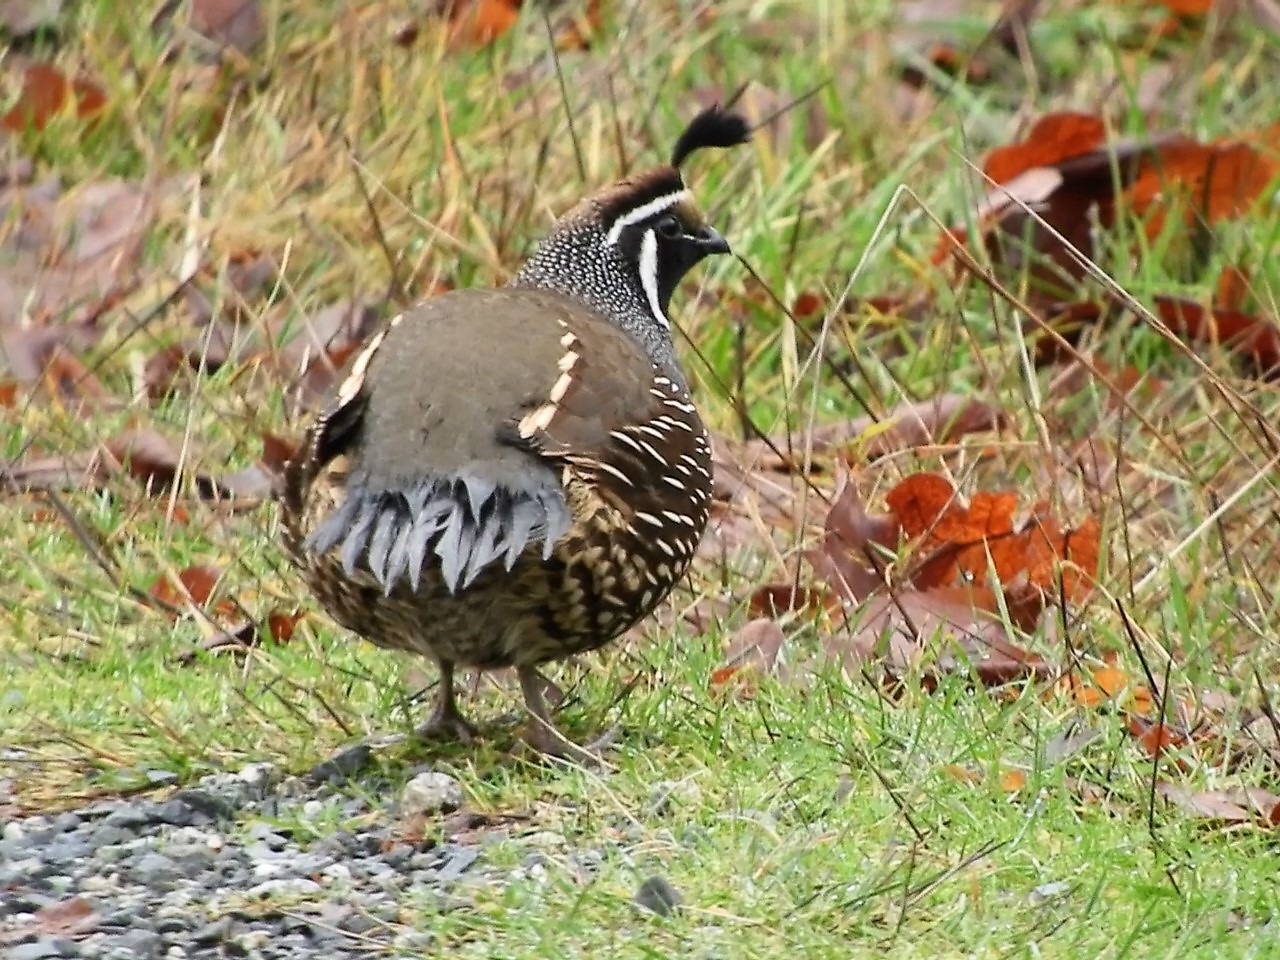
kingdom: Animalia
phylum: Chordata
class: Aves
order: Galliformes
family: Odontophoridae
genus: Callipepla
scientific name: Callipepla californica
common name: California quail
